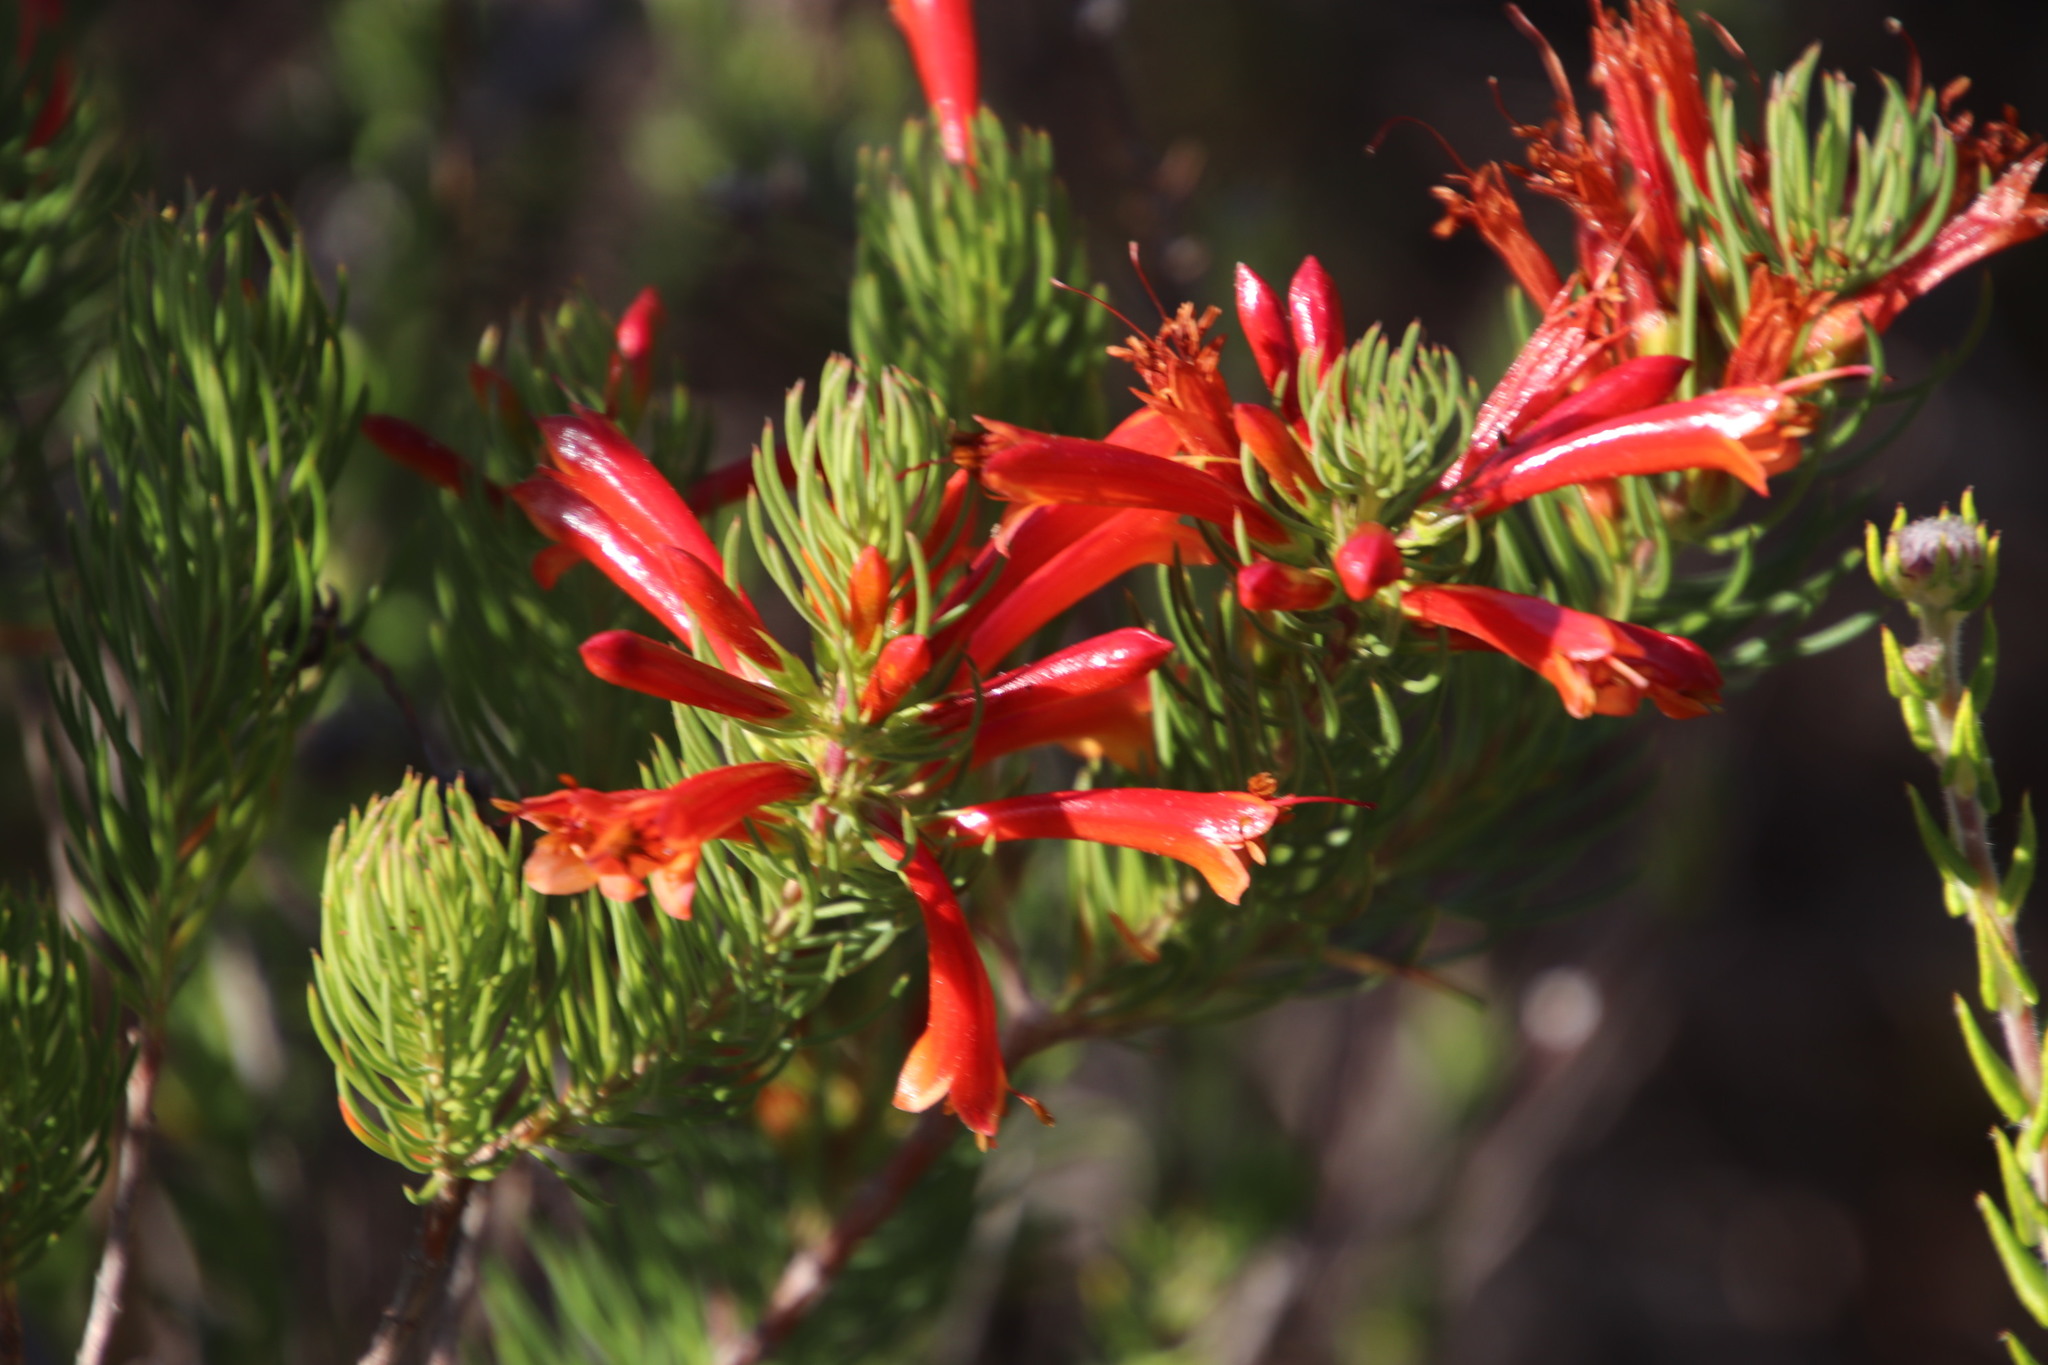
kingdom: Plantae
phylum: Tracheophyta
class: Magnoliopsida
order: Ericales
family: Ericaceae
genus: Erica
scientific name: Erica grandiflora
